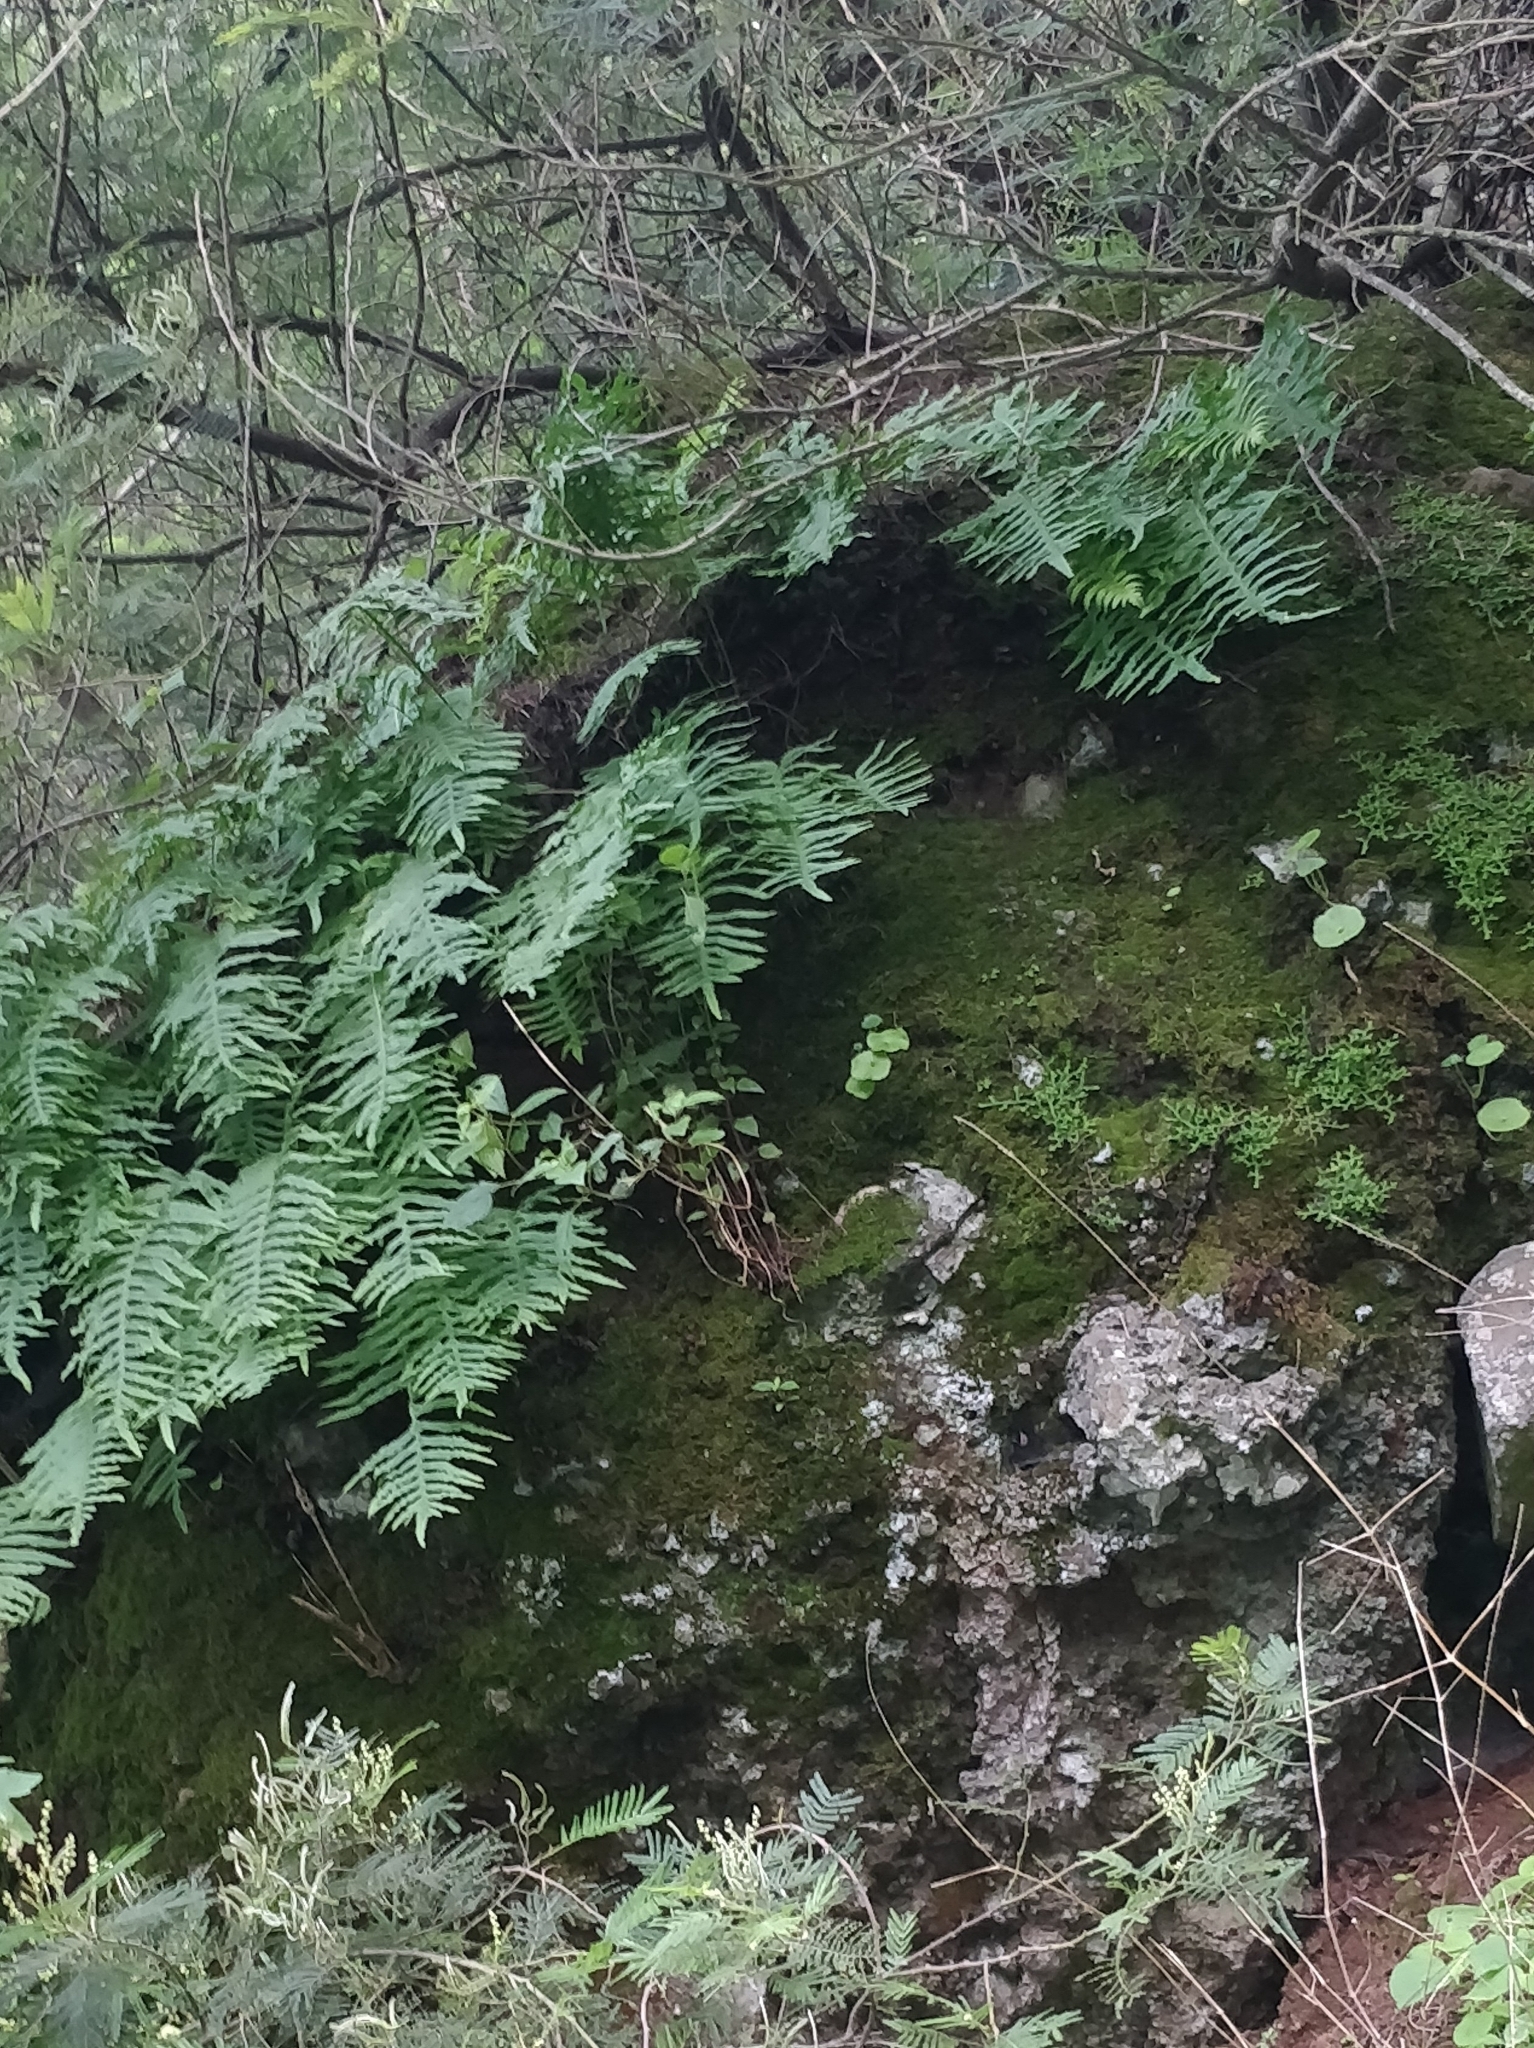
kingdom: Plantae
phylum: Tracheophyta
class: Polypodiopsida
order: Polypodiales
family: Polypodiaceae
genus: Polypodium
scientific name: Polypodium macaronesicum
